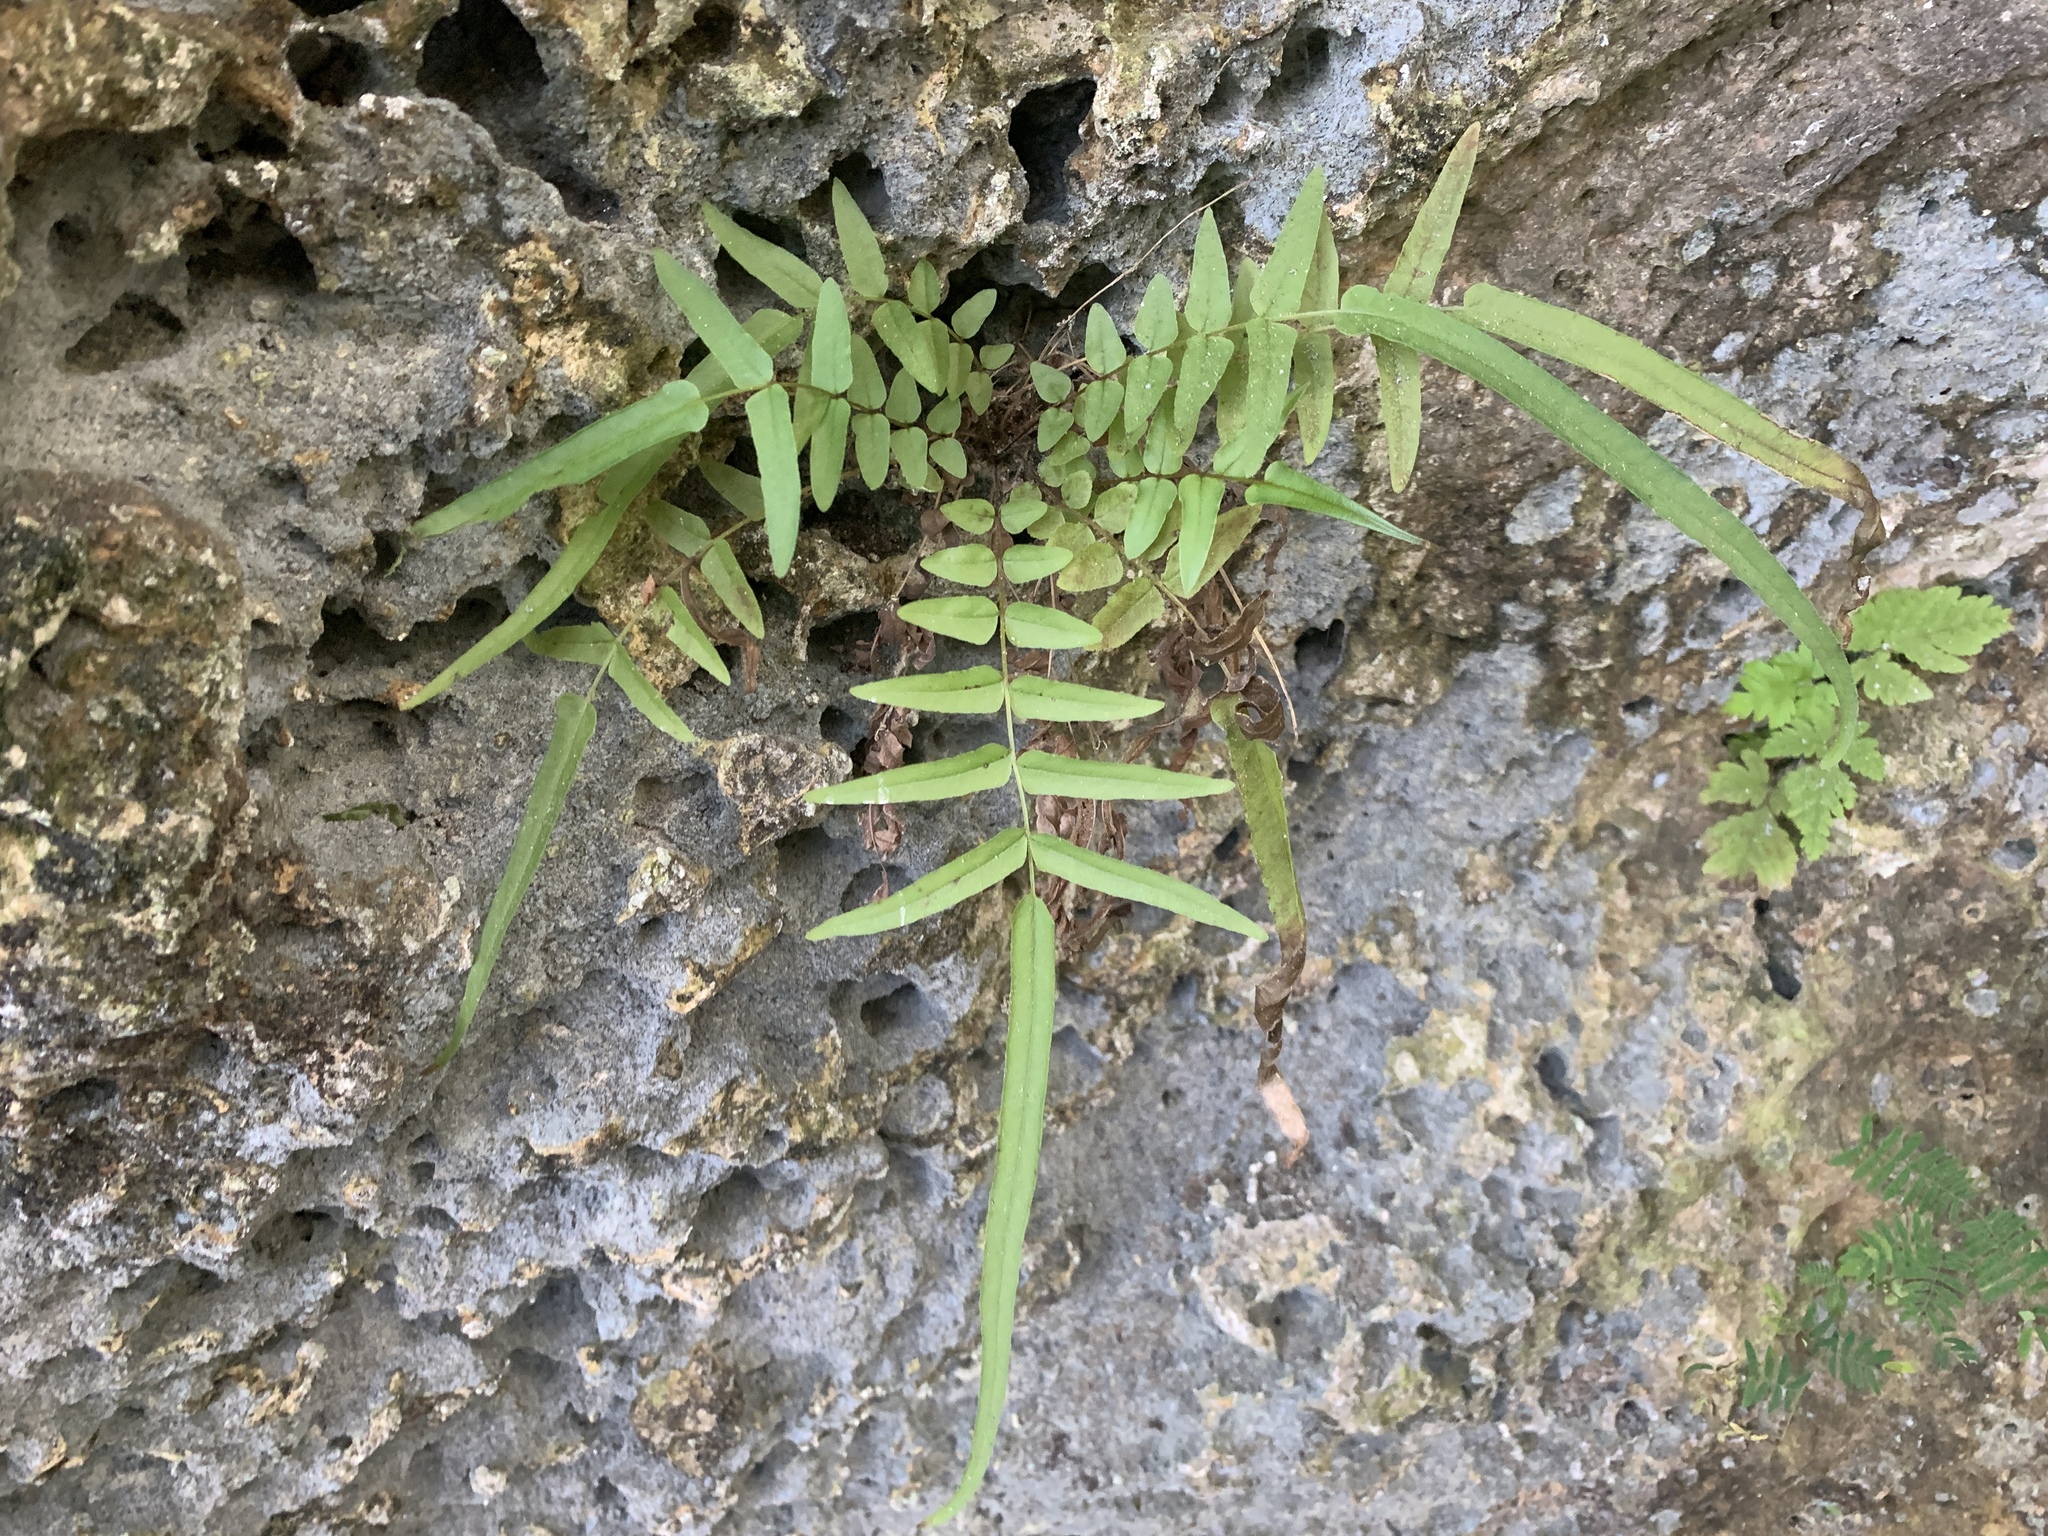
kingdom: Plantae
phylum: Tracheophyta
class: Polypodiopsida
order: Polypodiales
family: Pteridaceae
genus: Pteris
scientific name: Pteris vittata
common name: Ladder brake
